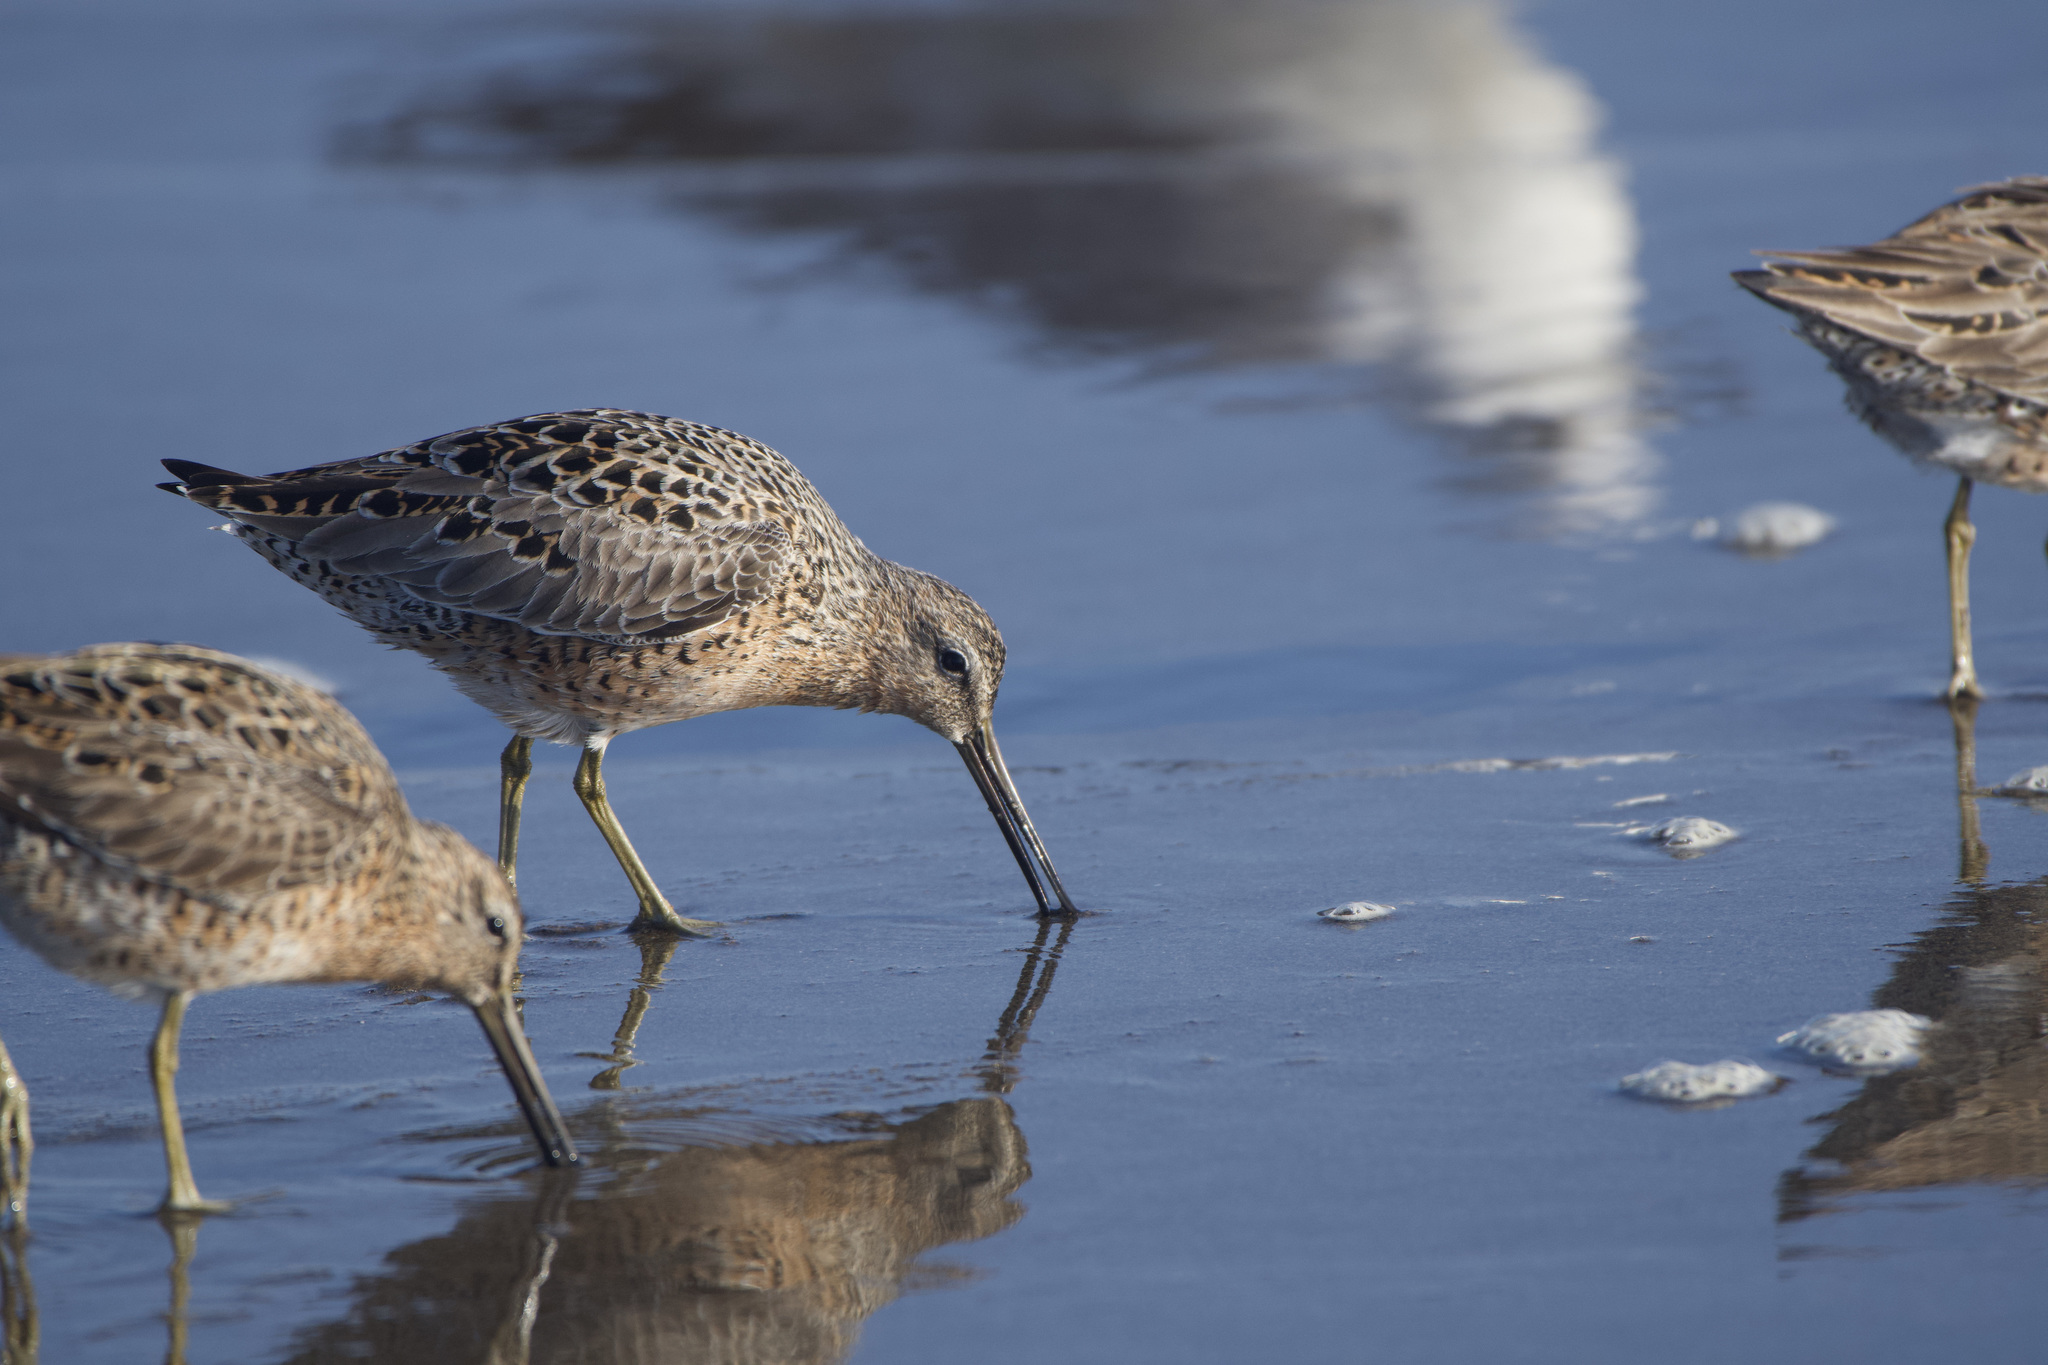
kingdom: Animalia
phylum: Chordata
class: Aves
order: Charadriiformes
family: Scolopacidae
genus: Limnodromus
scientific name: Limnodromus griseus
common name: Short-billed dowitcher
